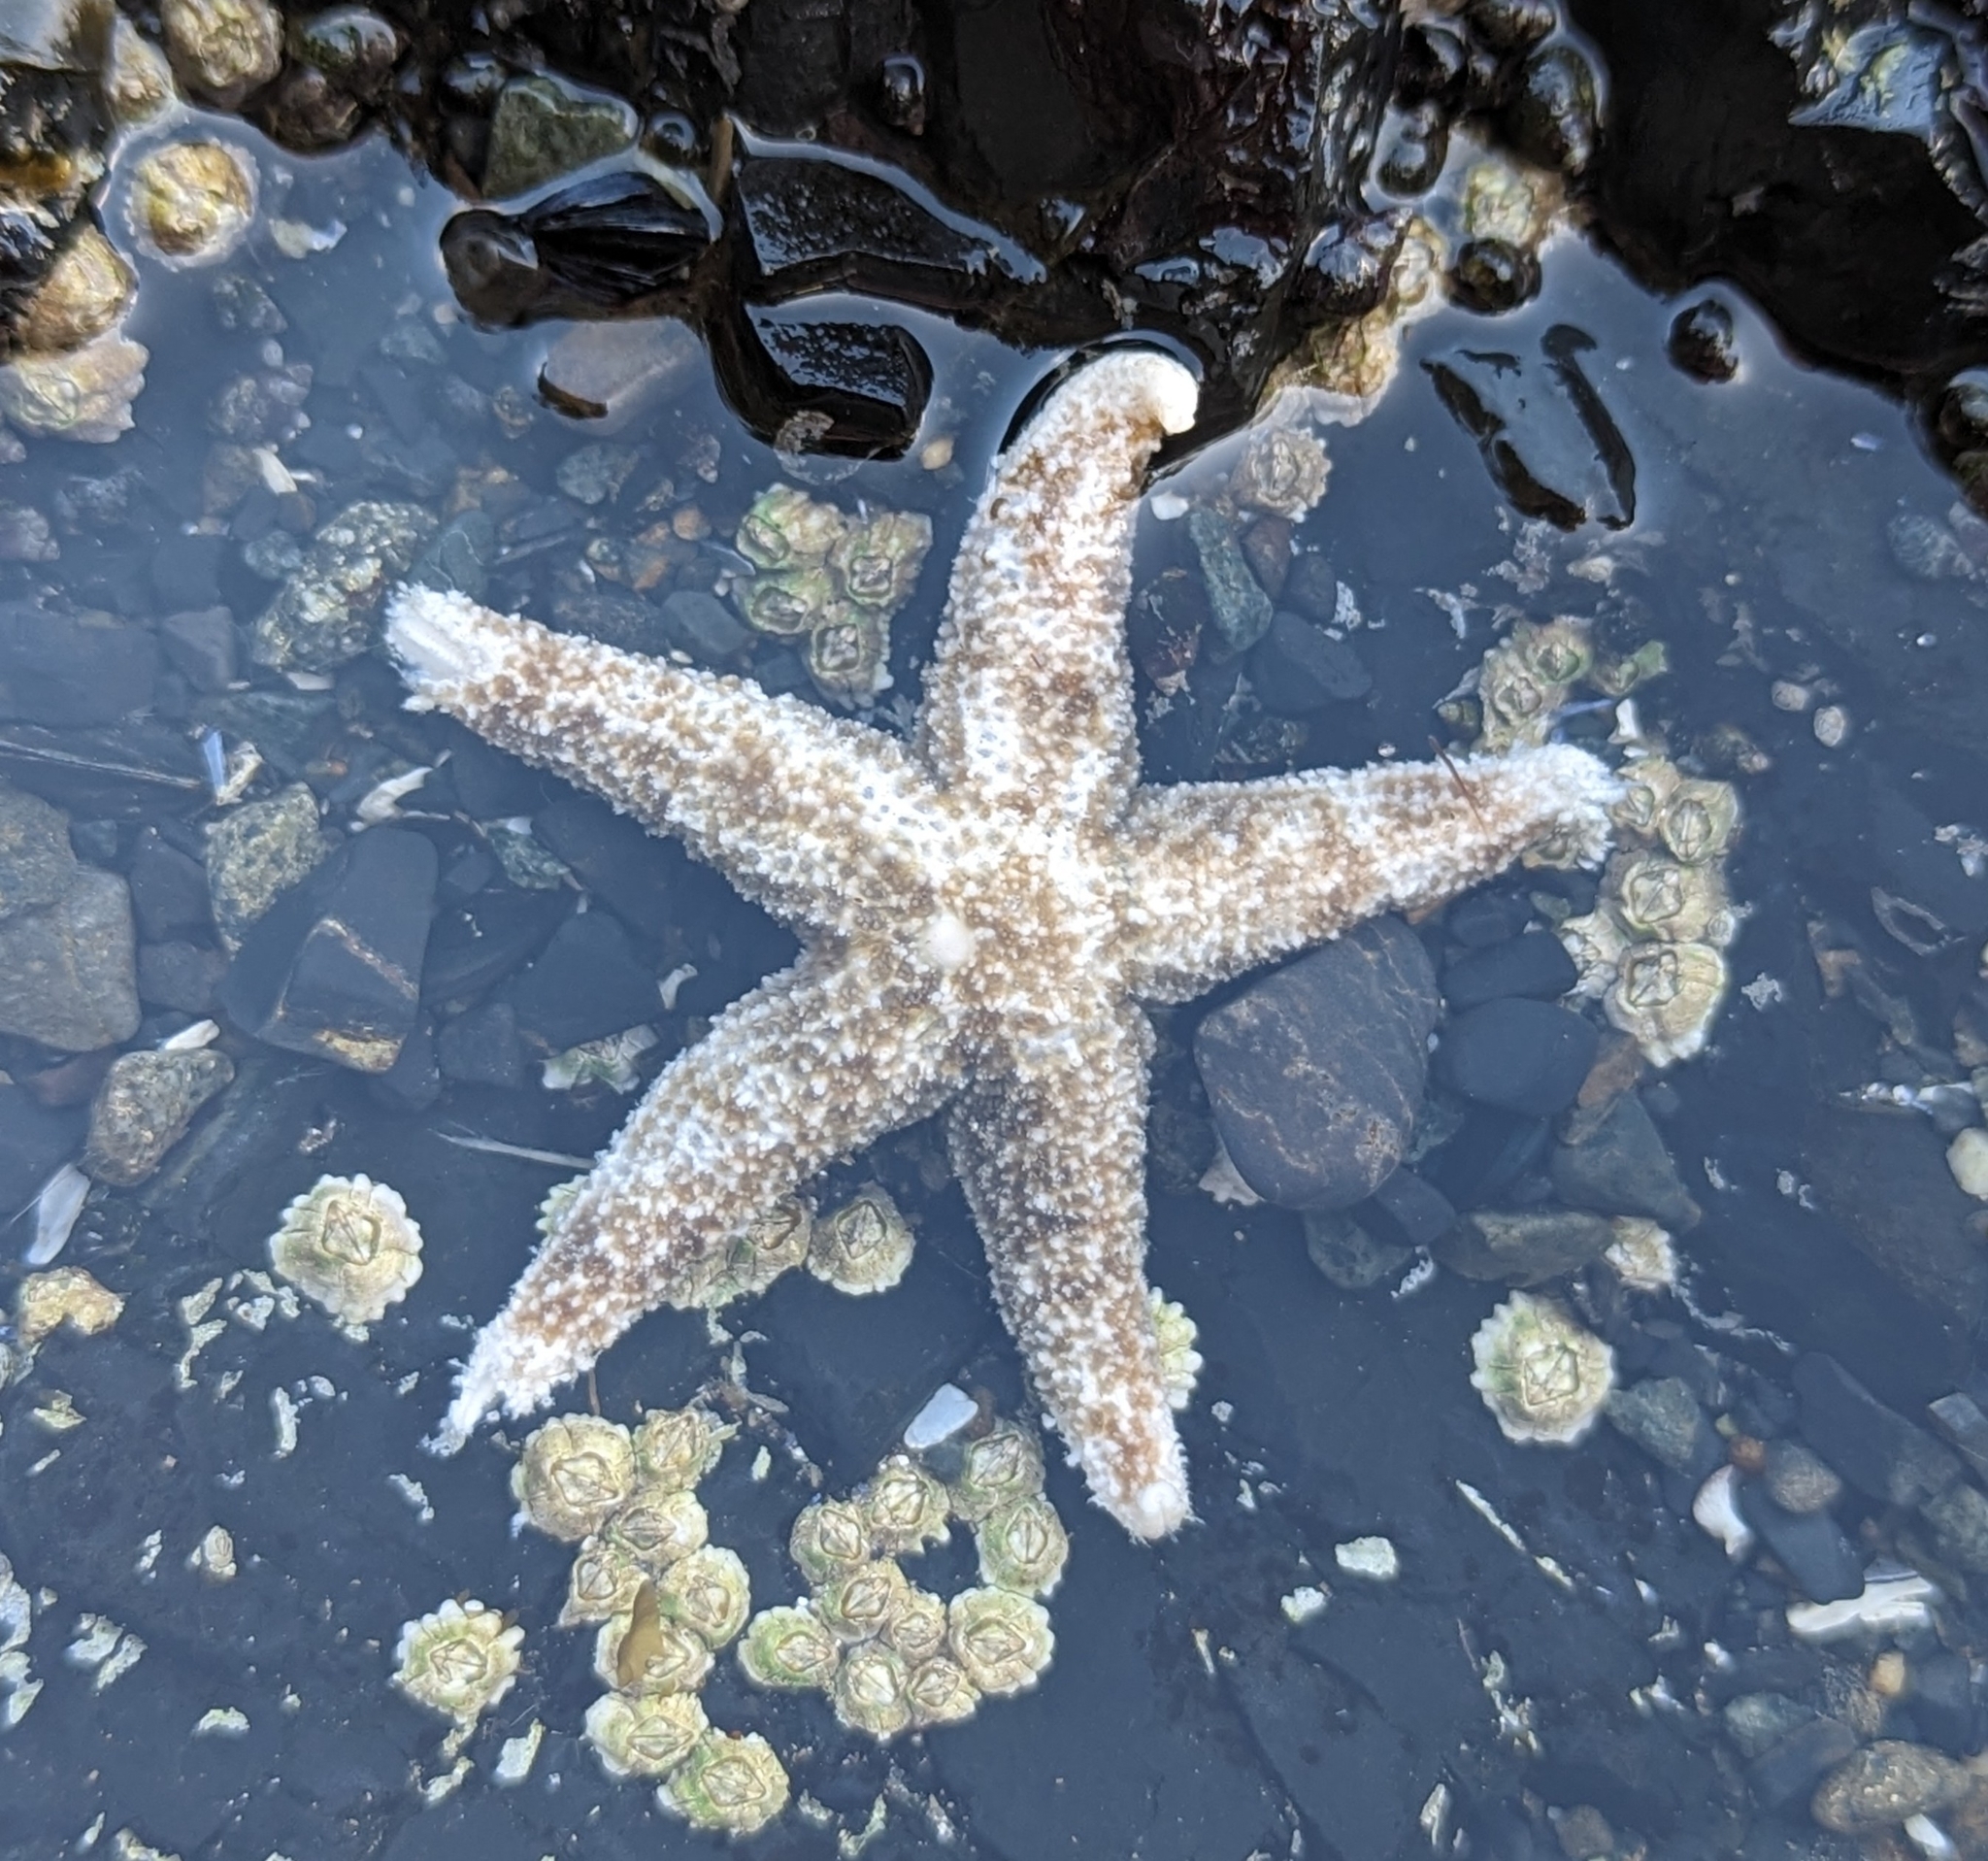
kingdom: Animalia
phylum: Echinodermata
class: Asteroidea
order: Forcipulatida
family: Asteriidae
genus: Evasterias
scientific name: Evasterias troschelii
